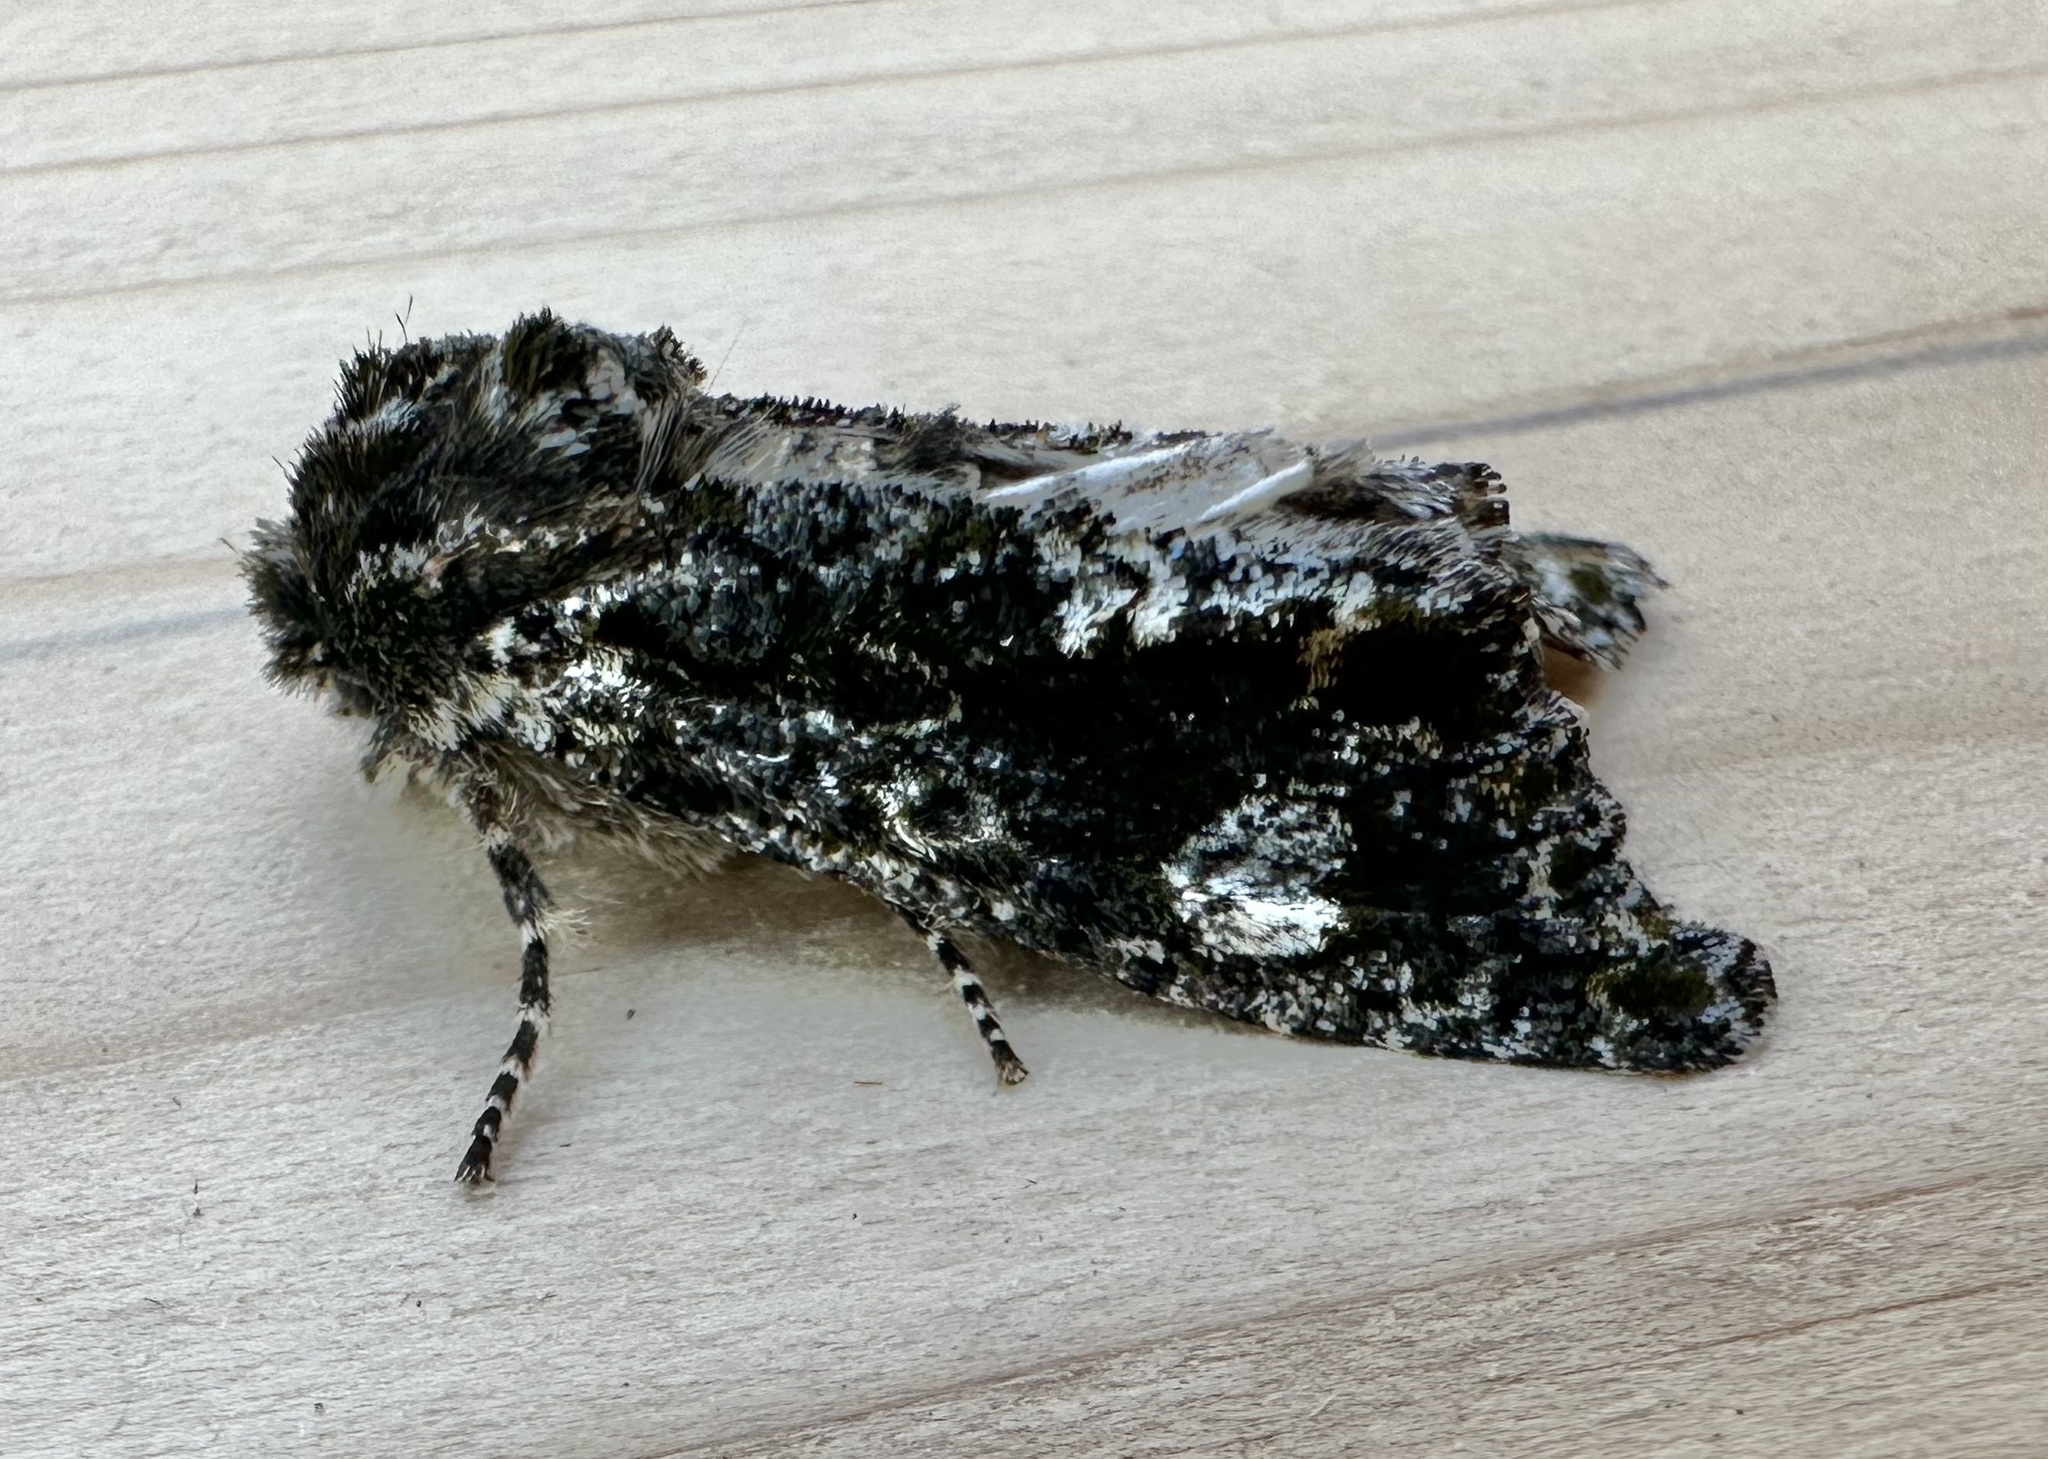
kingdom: Animalia
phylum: Arthropoda
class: Insecta
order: Lepidoptera
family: Noctuidae
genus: Psaphida
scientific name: Psaphida grotei
